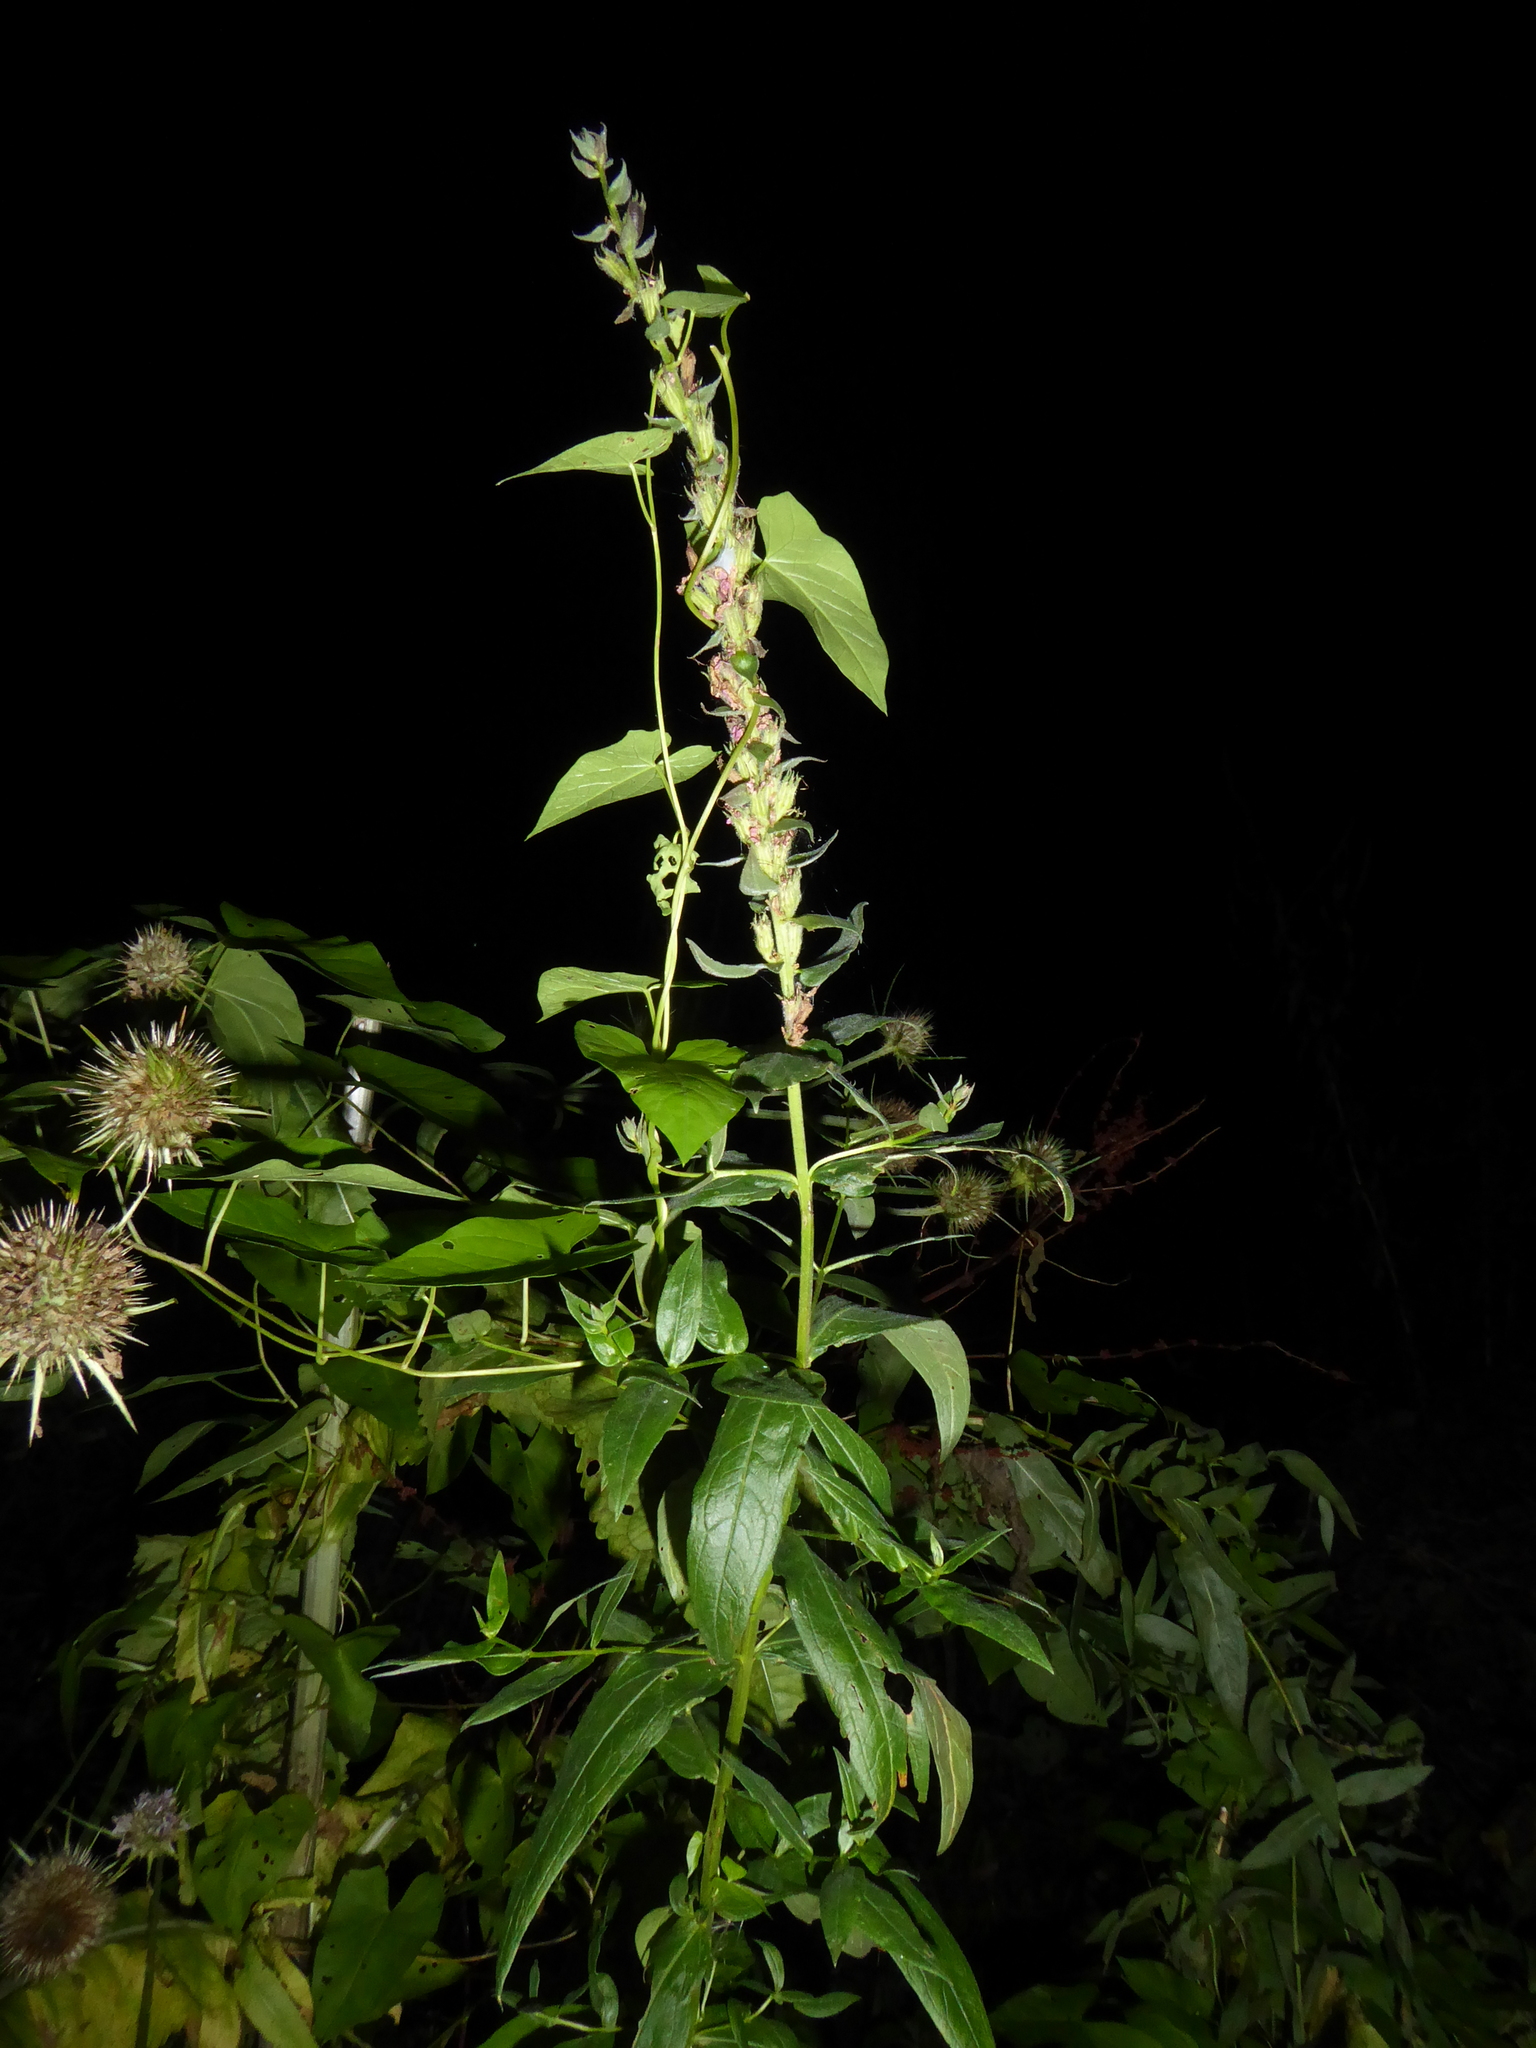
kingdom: Plantae
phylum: Tracheophyta
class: Magnoliopsida
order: Myrtales
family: Lythraceae
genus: Lythrum
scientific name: Lythrum salicaria
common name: Purple loosestrife
